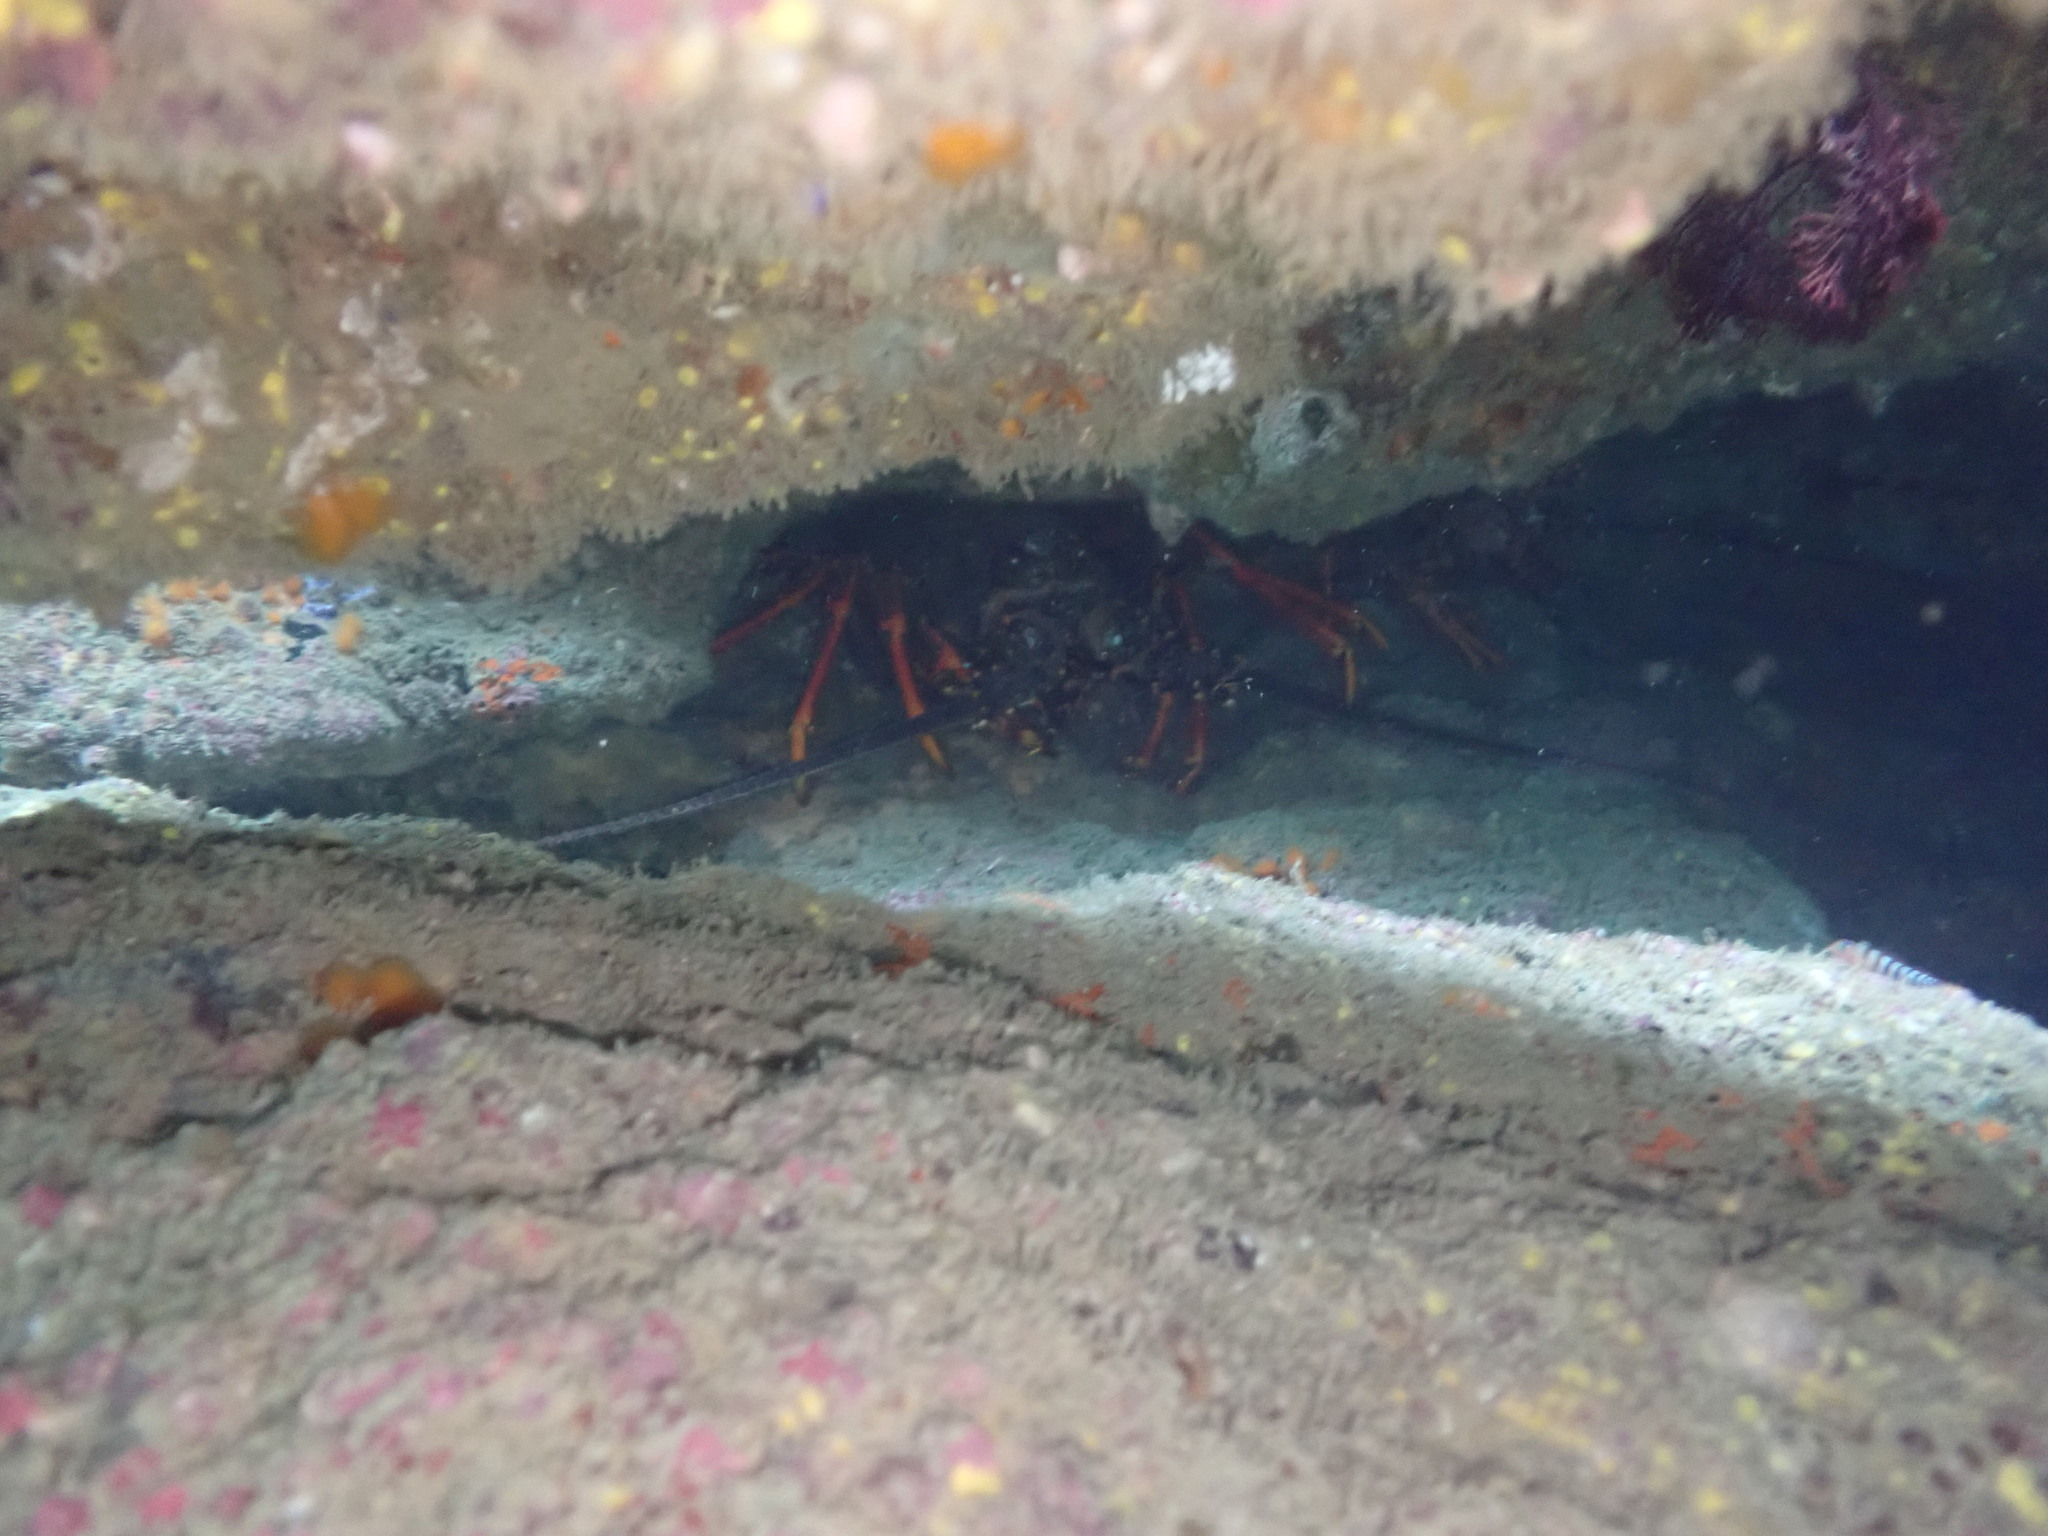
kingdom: Animalia
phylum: Arthropoda
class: Malacostraca
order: Decapoda
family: Palinuridae
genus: Jasus
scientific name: Jasus edwardsii
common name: Red rock lobster
